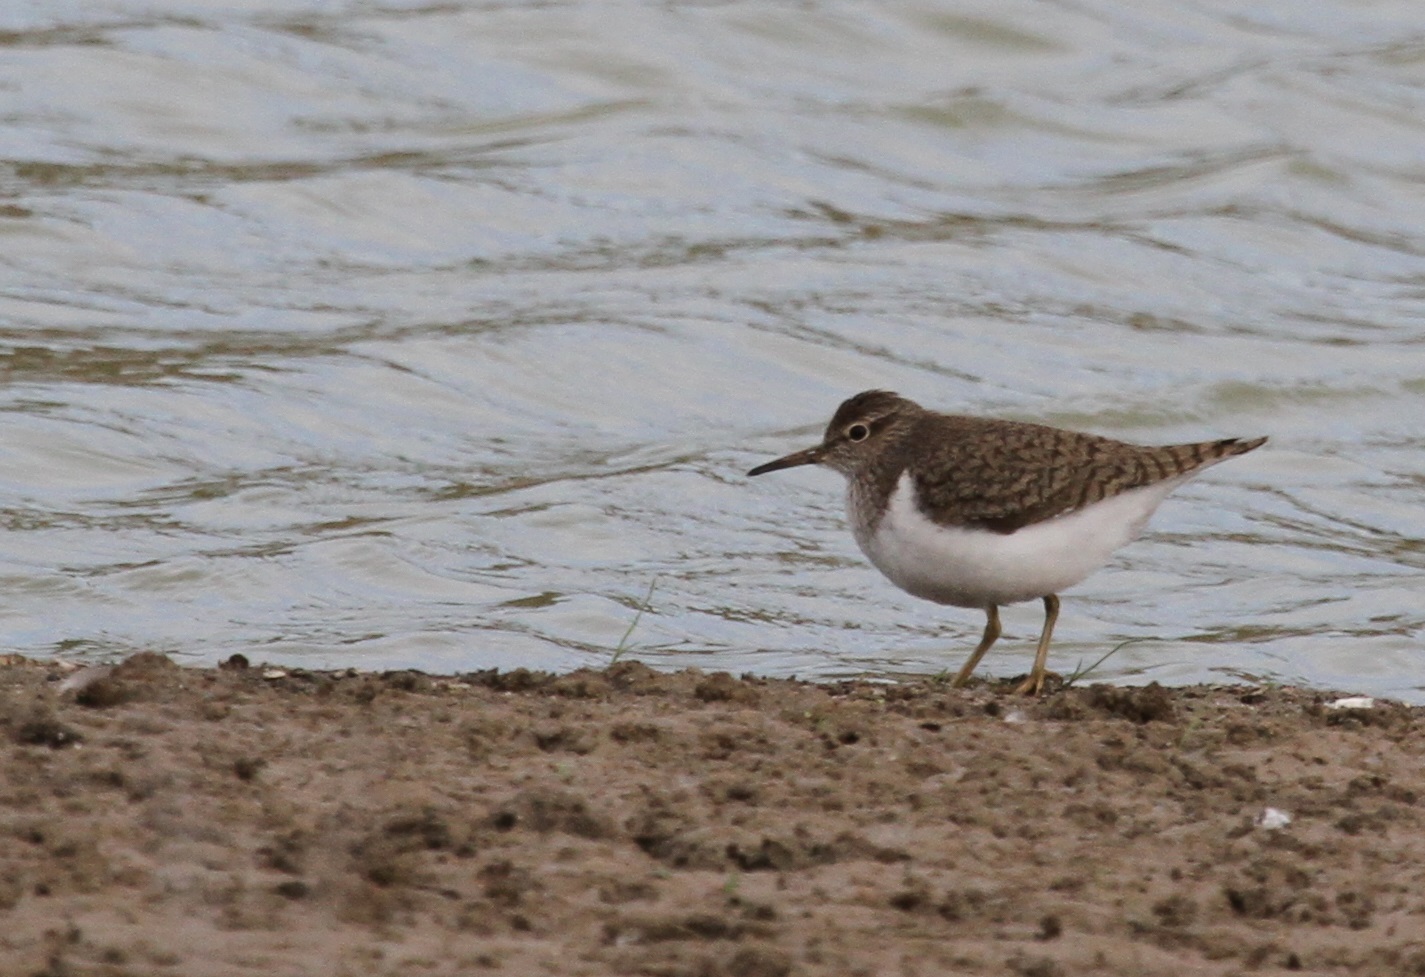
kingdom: Animalia
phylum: Chordata
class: Aves
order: Charadriiformes
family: Scolopacidae
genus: Actitis
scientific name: Actitis hypoleucos
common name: Common sandpiper
